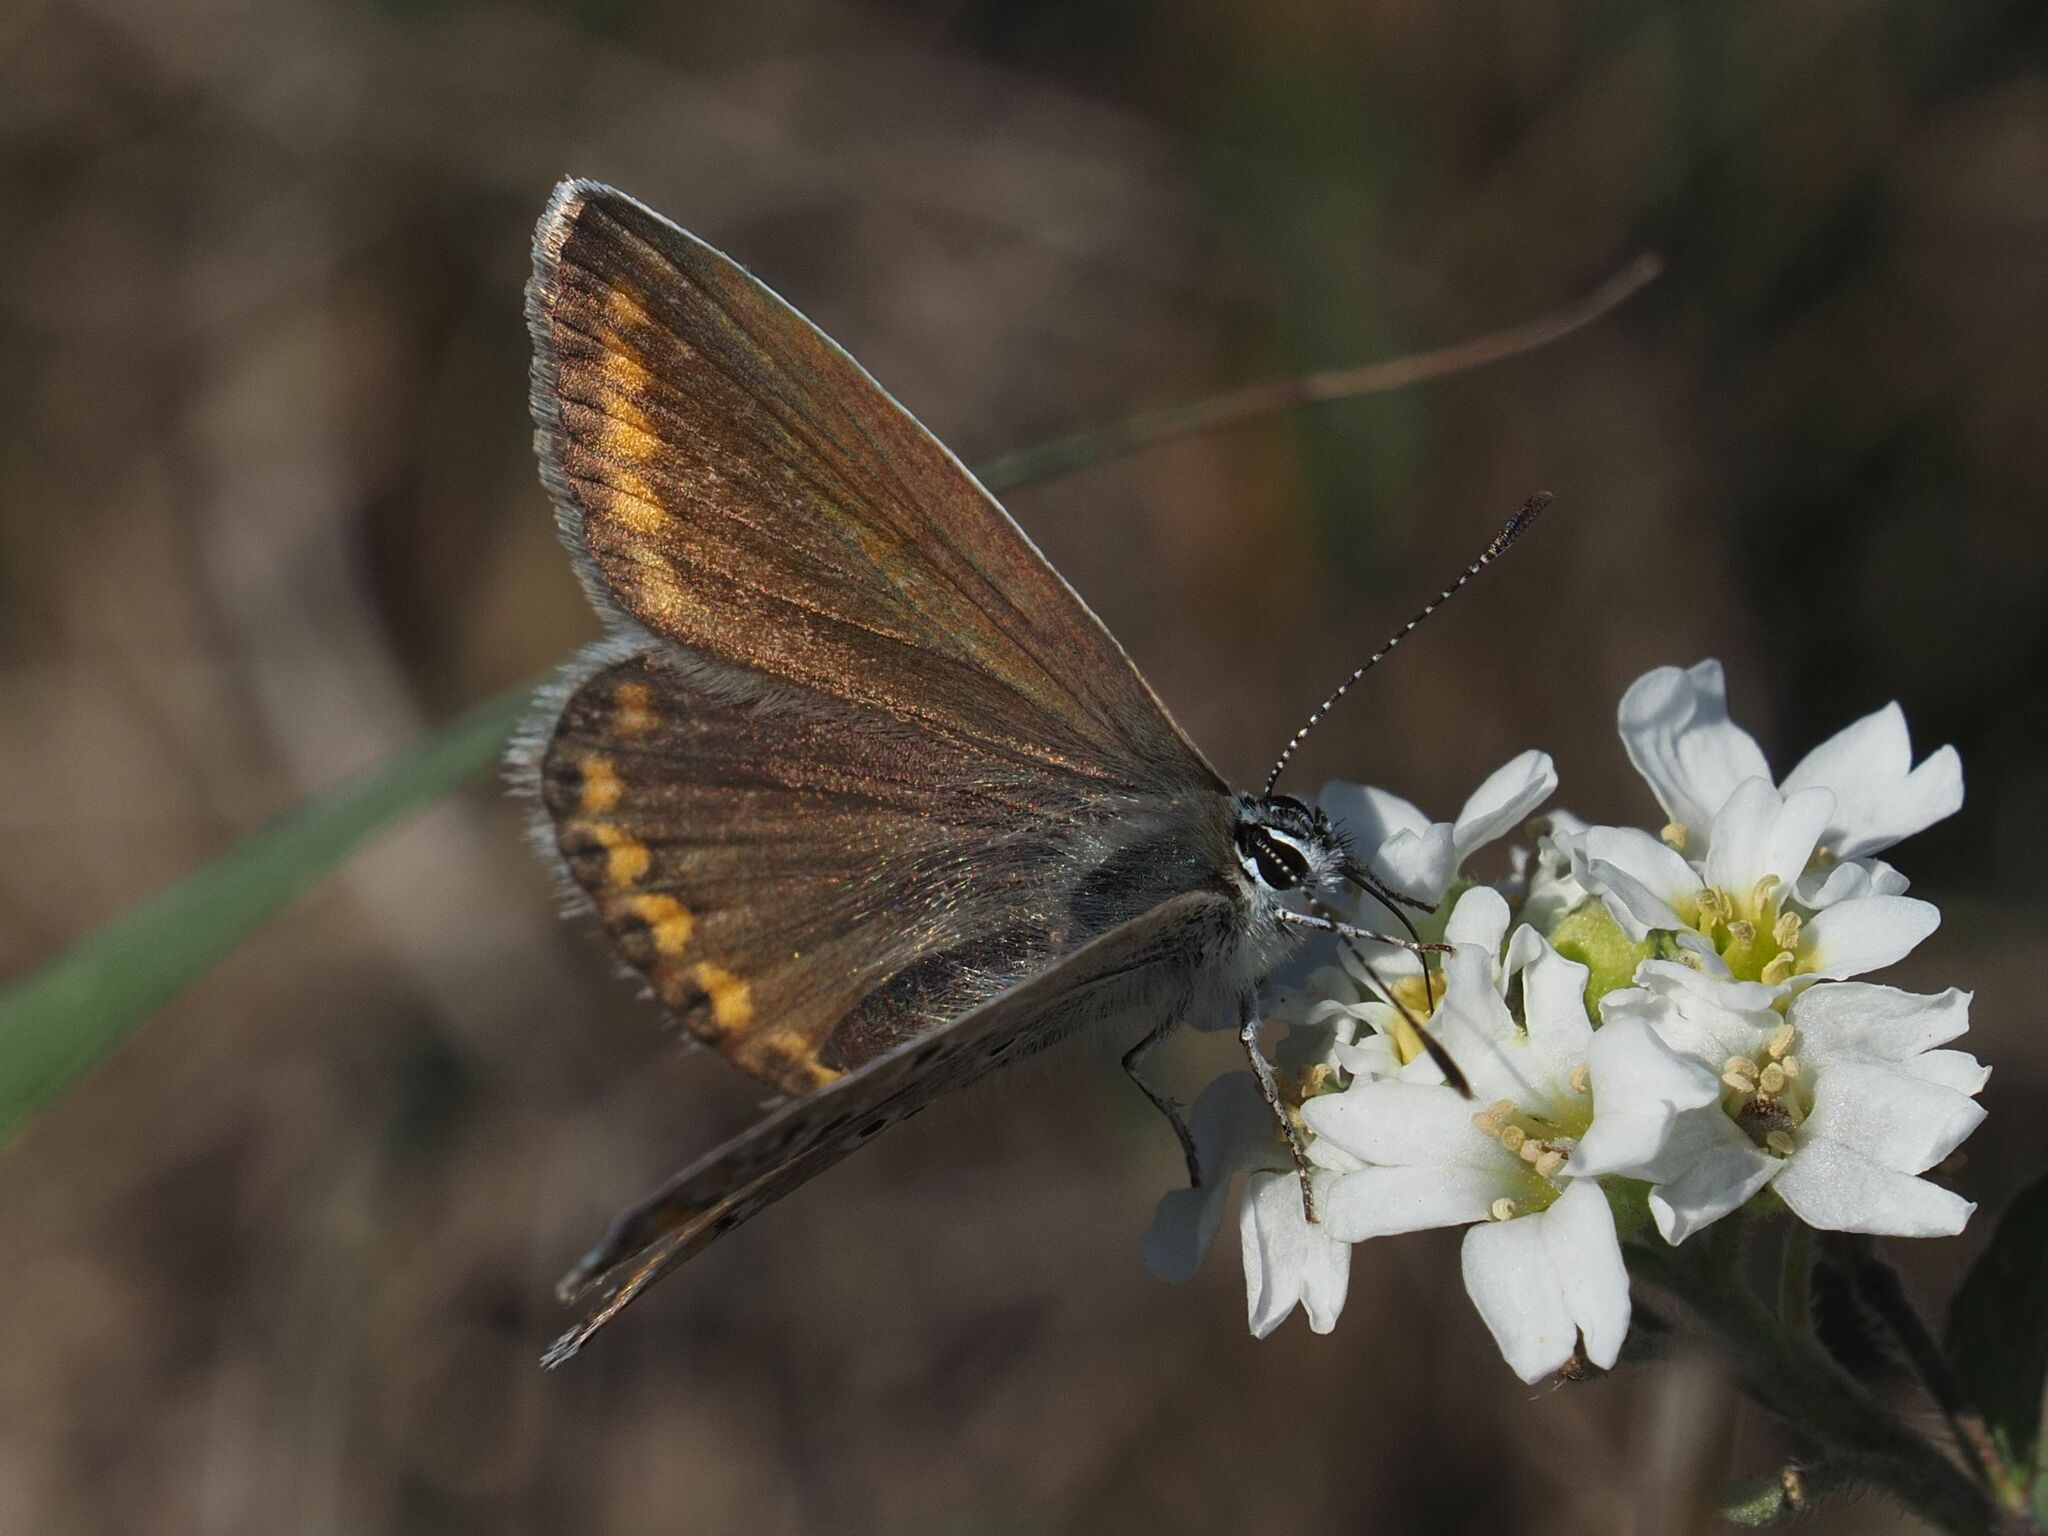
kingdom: Animalia
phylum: Arthropoda
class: Insecta
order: Lepidoptera
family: Lycaenidae
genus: Polyommatus
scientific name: Polyommatus icarus
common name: Common blue
